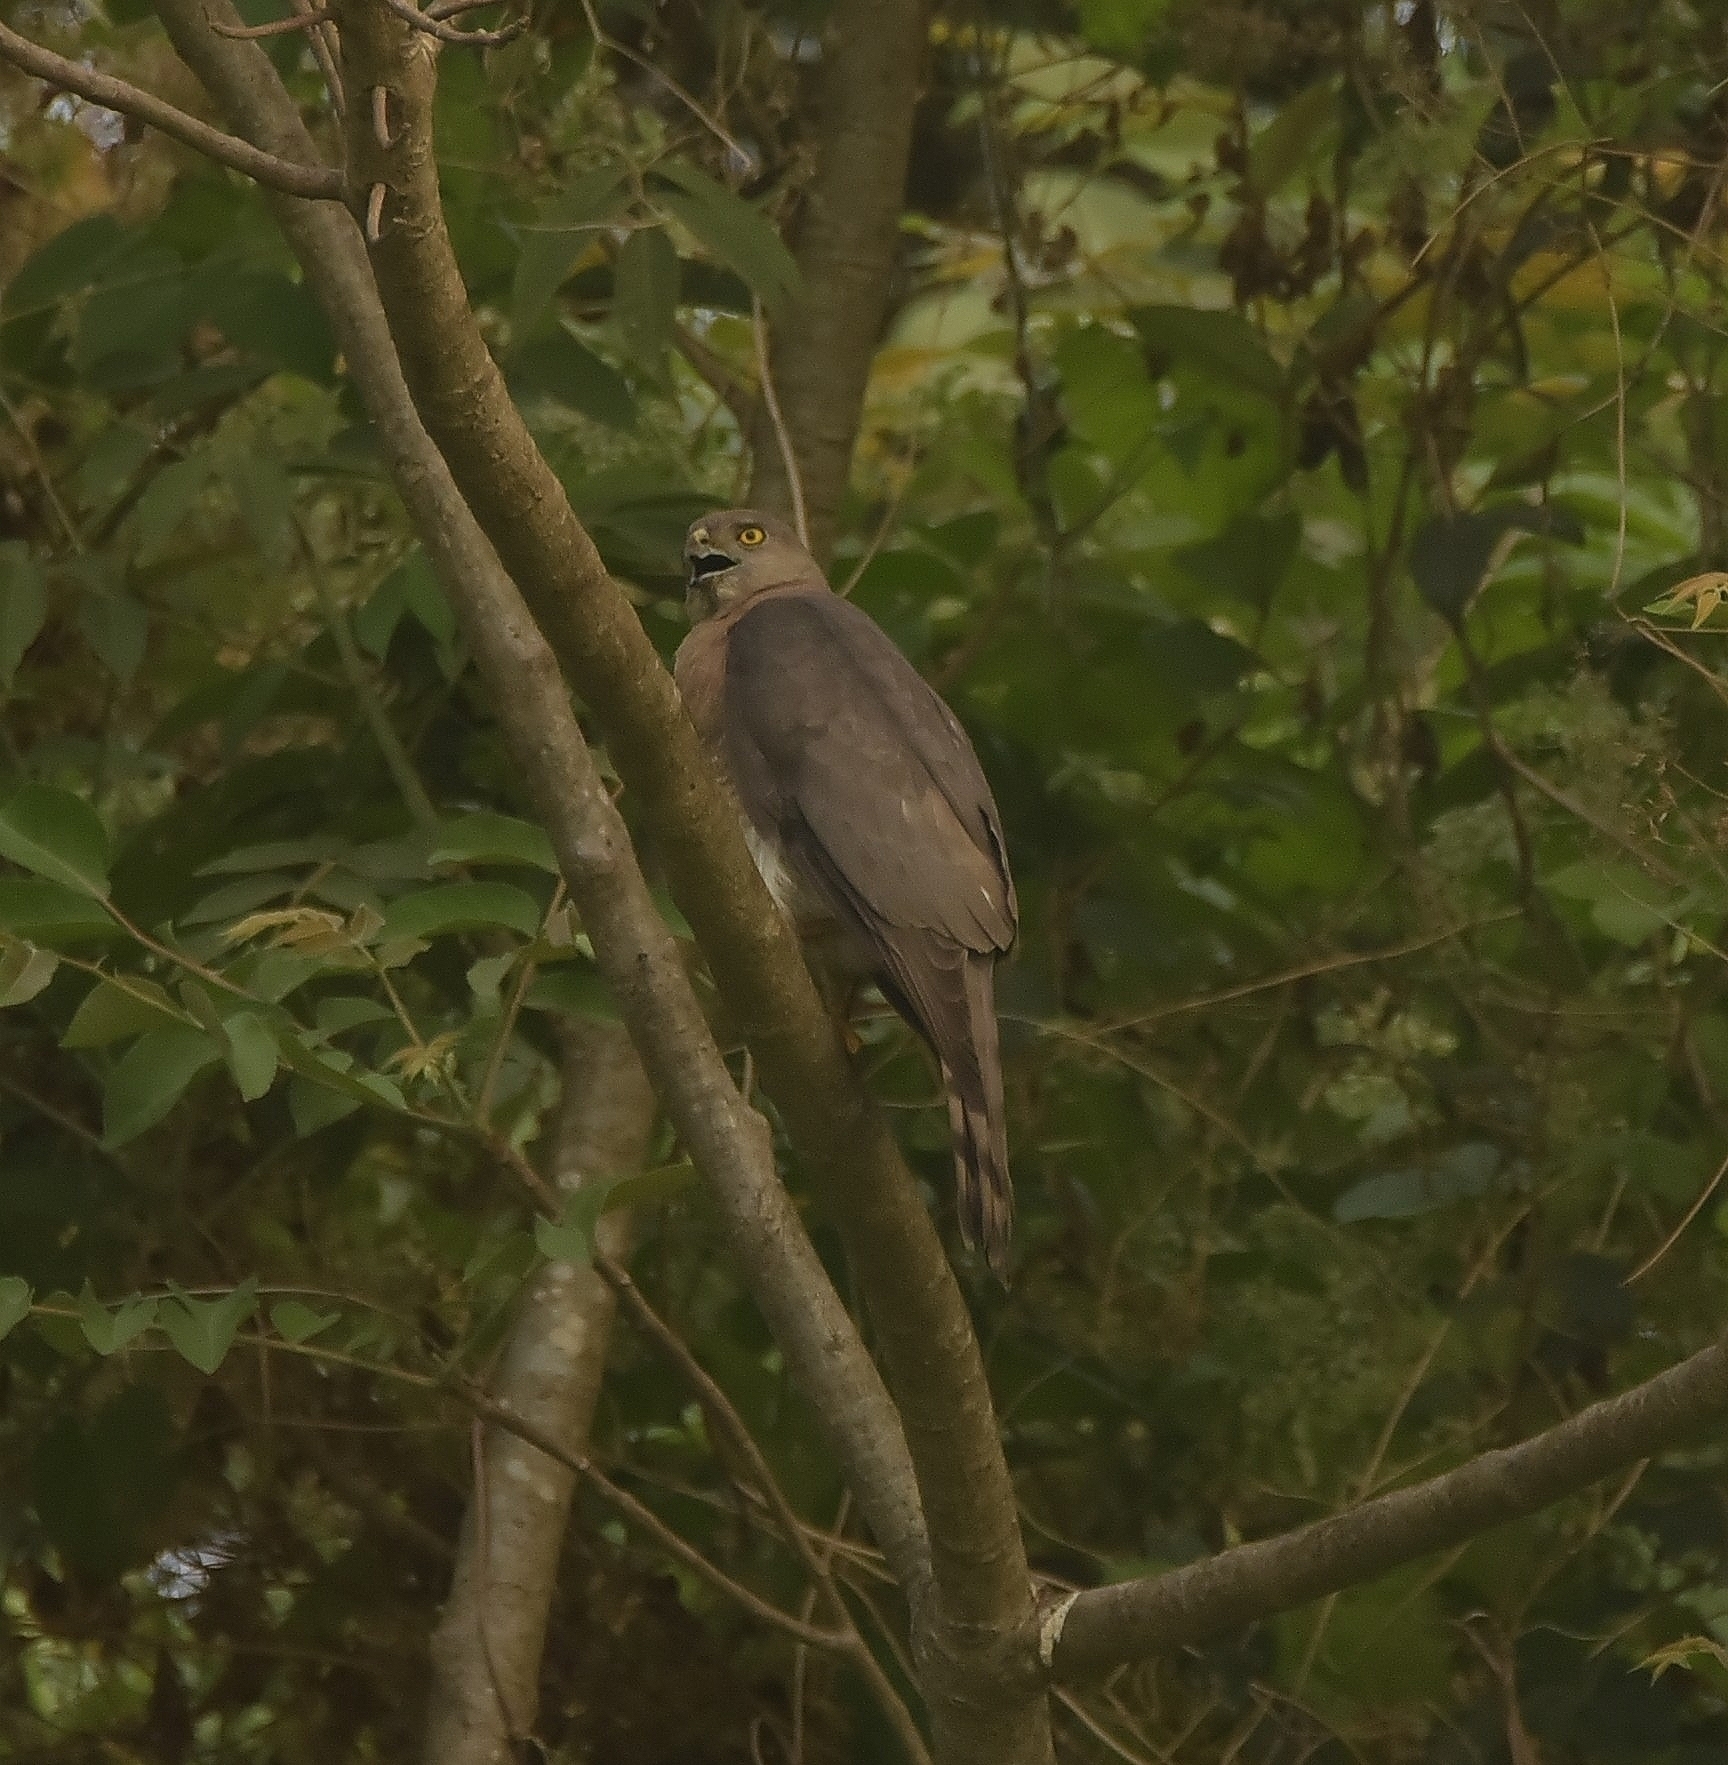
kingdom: Animalia
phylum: Chordata
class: Aves
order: Accipitriformes
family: Accipitridae
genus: Accipiter
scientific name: Accipiter badius
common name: Shikra
